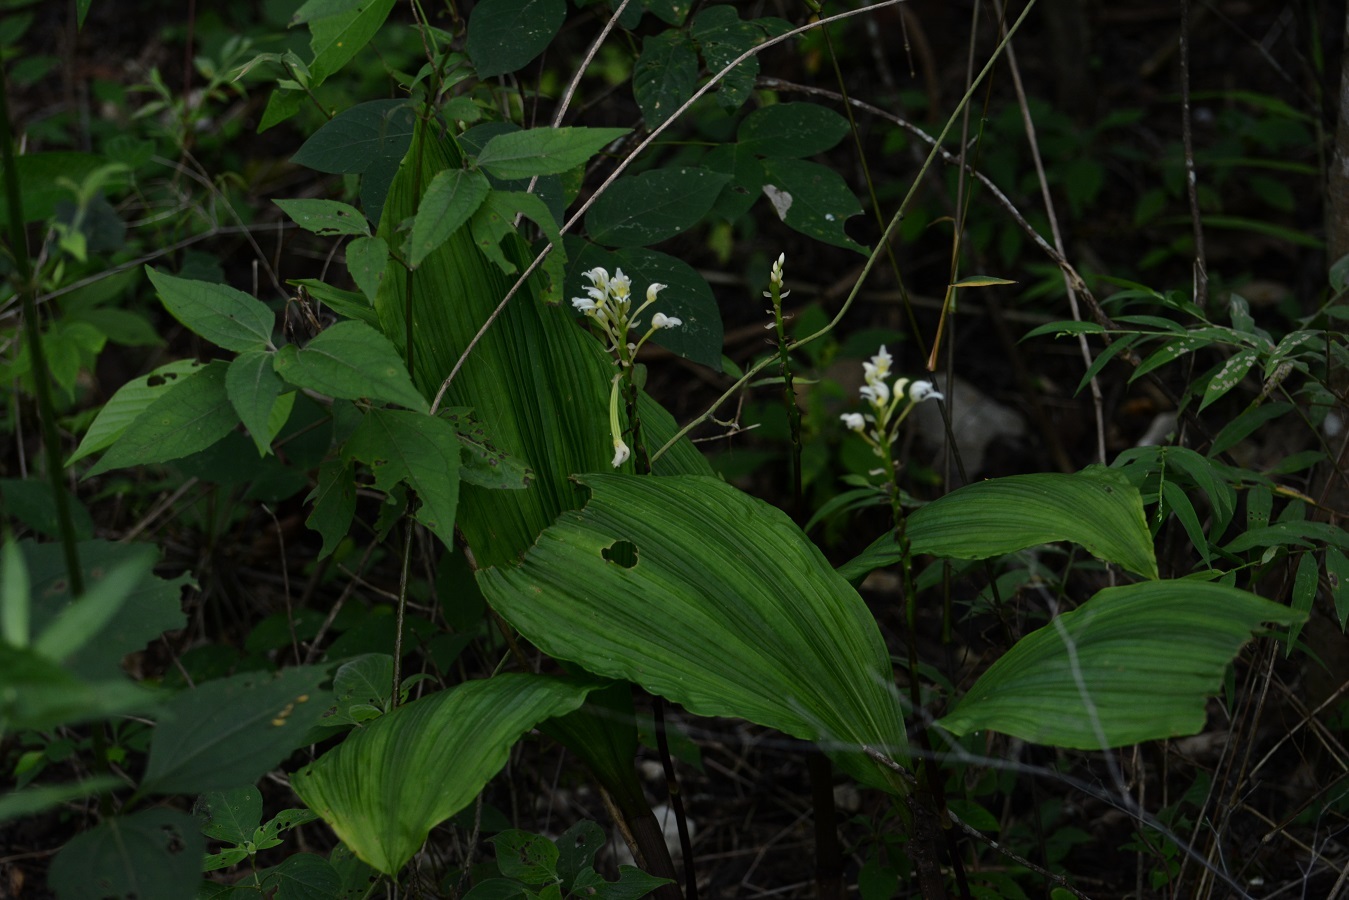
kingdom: Plantae
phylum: Tracheophyta
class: Liliopsida
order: Asparagales
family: Orchidaceae
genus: Govenia
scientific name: Govenia alba
